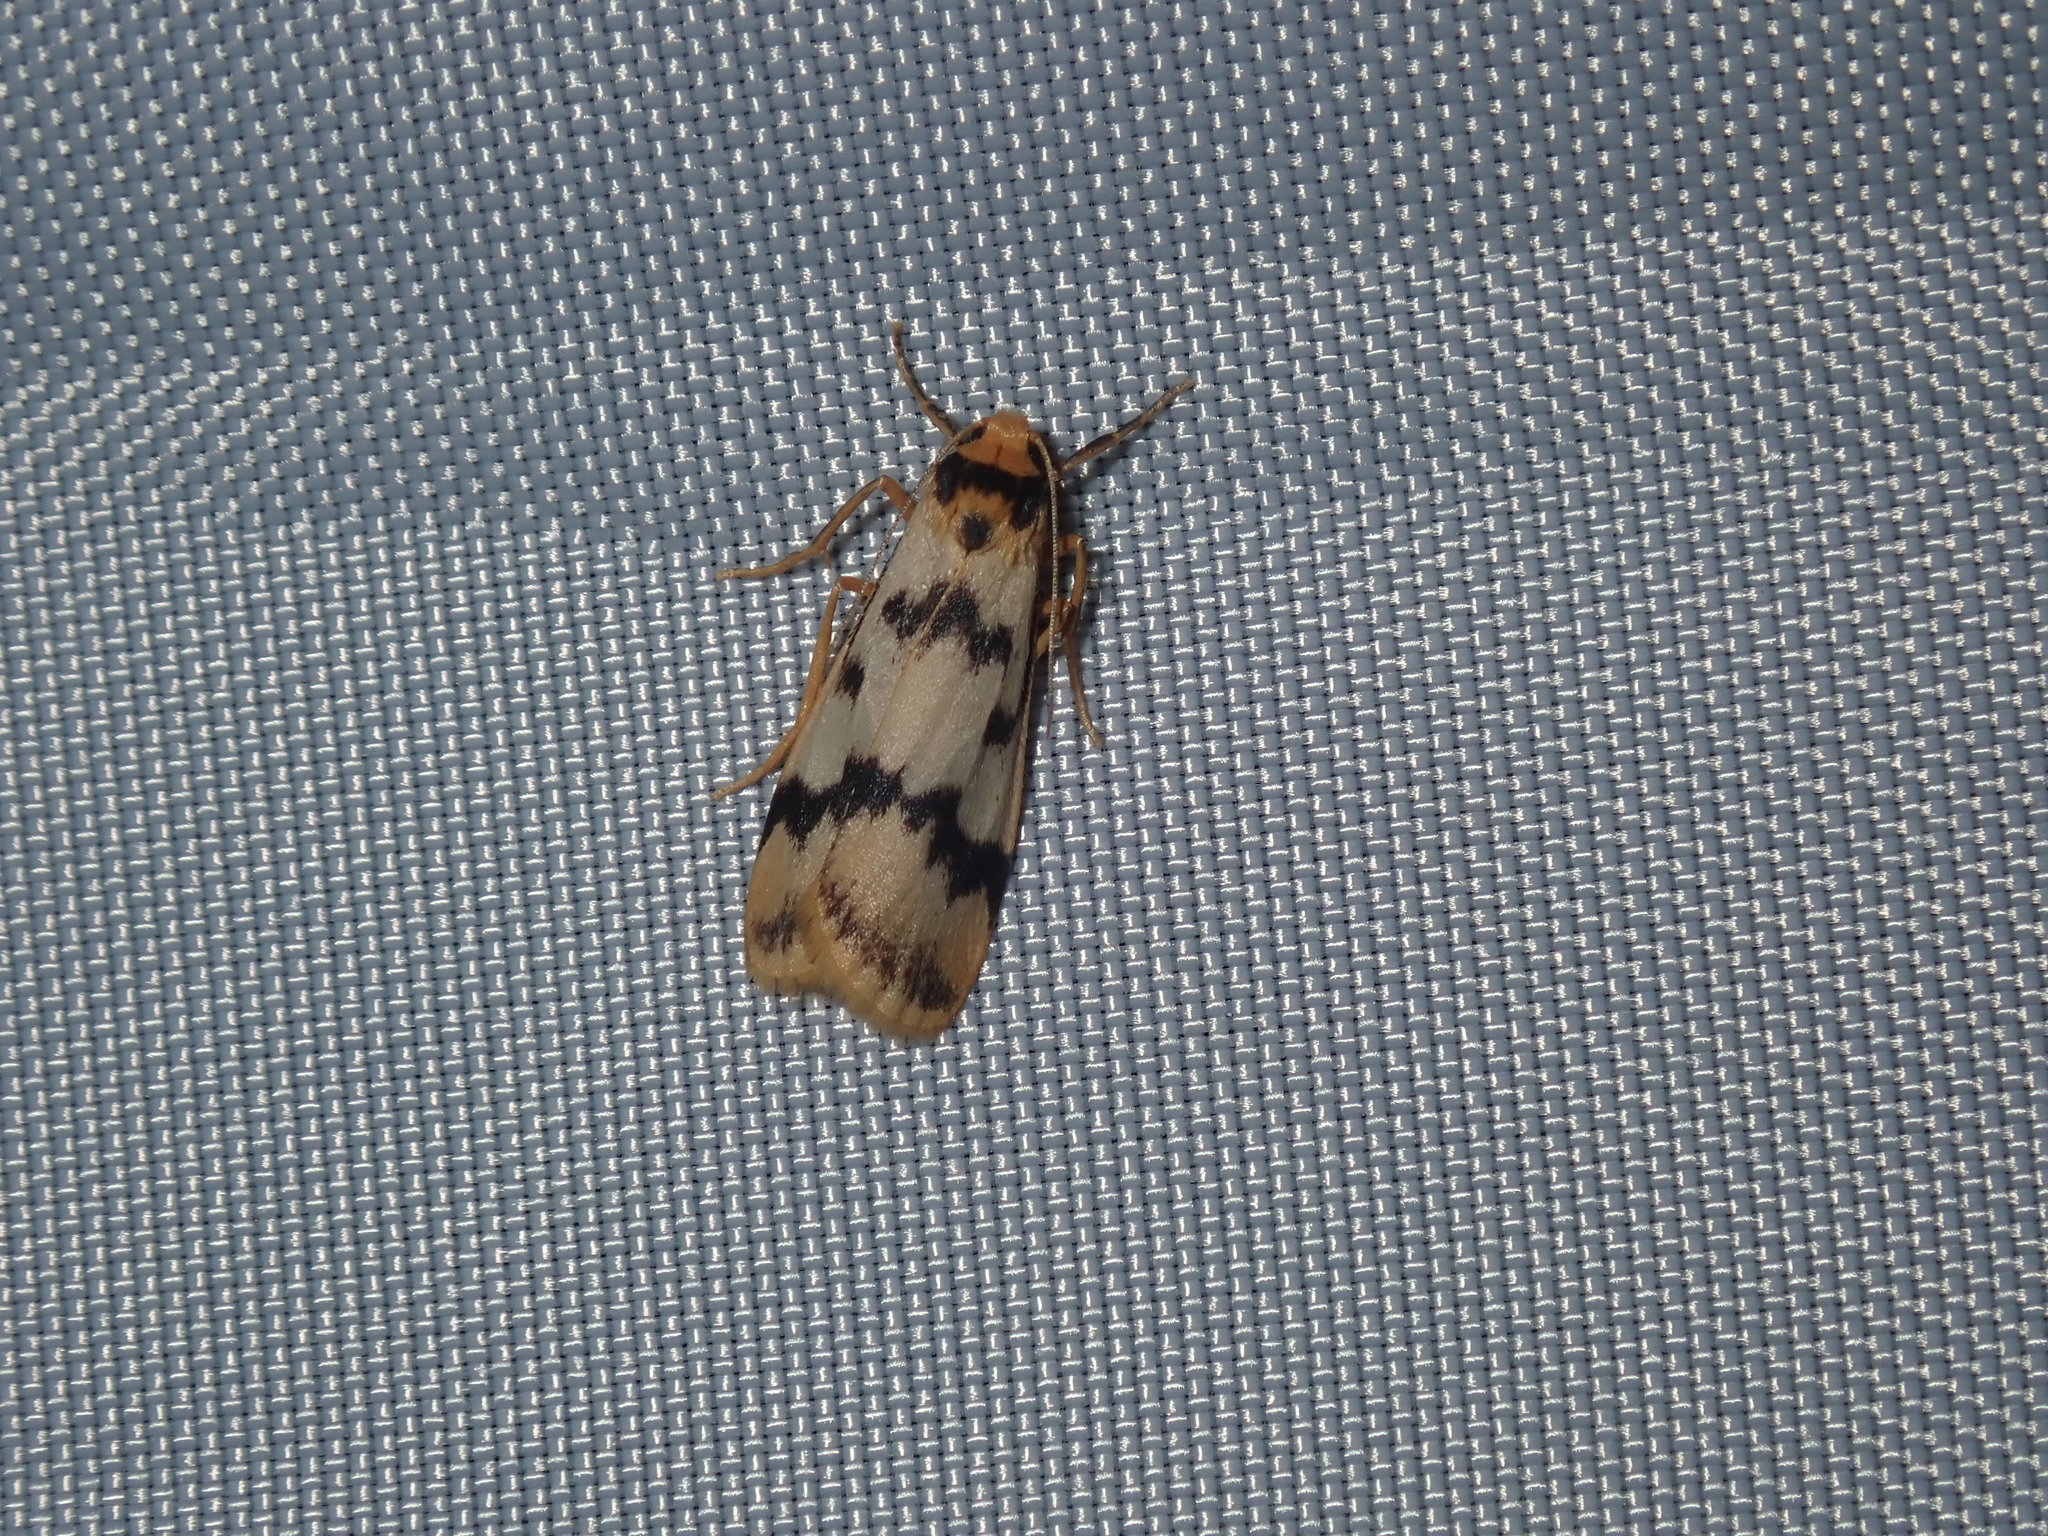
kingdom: Animalia
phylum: Arthropoda
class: Insecta
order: Lepidoptera
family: Erebidae
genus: Tigrioides
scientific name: Tigrioides alterna
